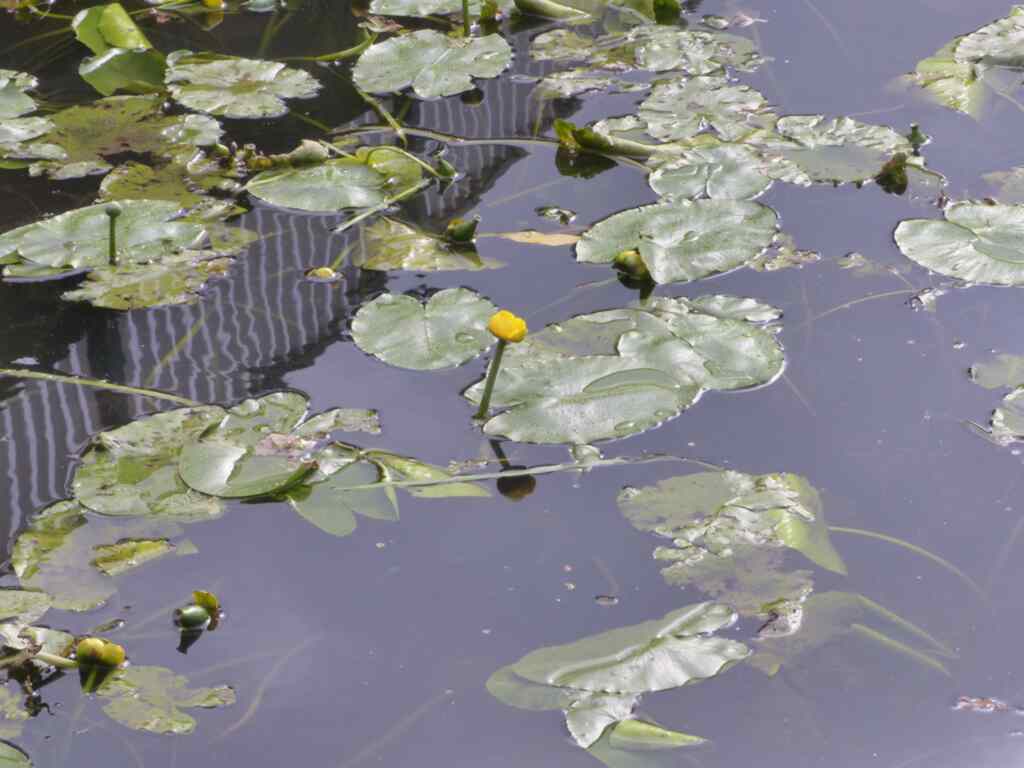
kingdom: Plantae
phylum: Tracheophyta
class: Magnoliopsida
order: Nymphaeales
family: Nymphaeaceae
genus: Nuphar
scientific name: Nuphar lutea
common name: Yellow water-lily
